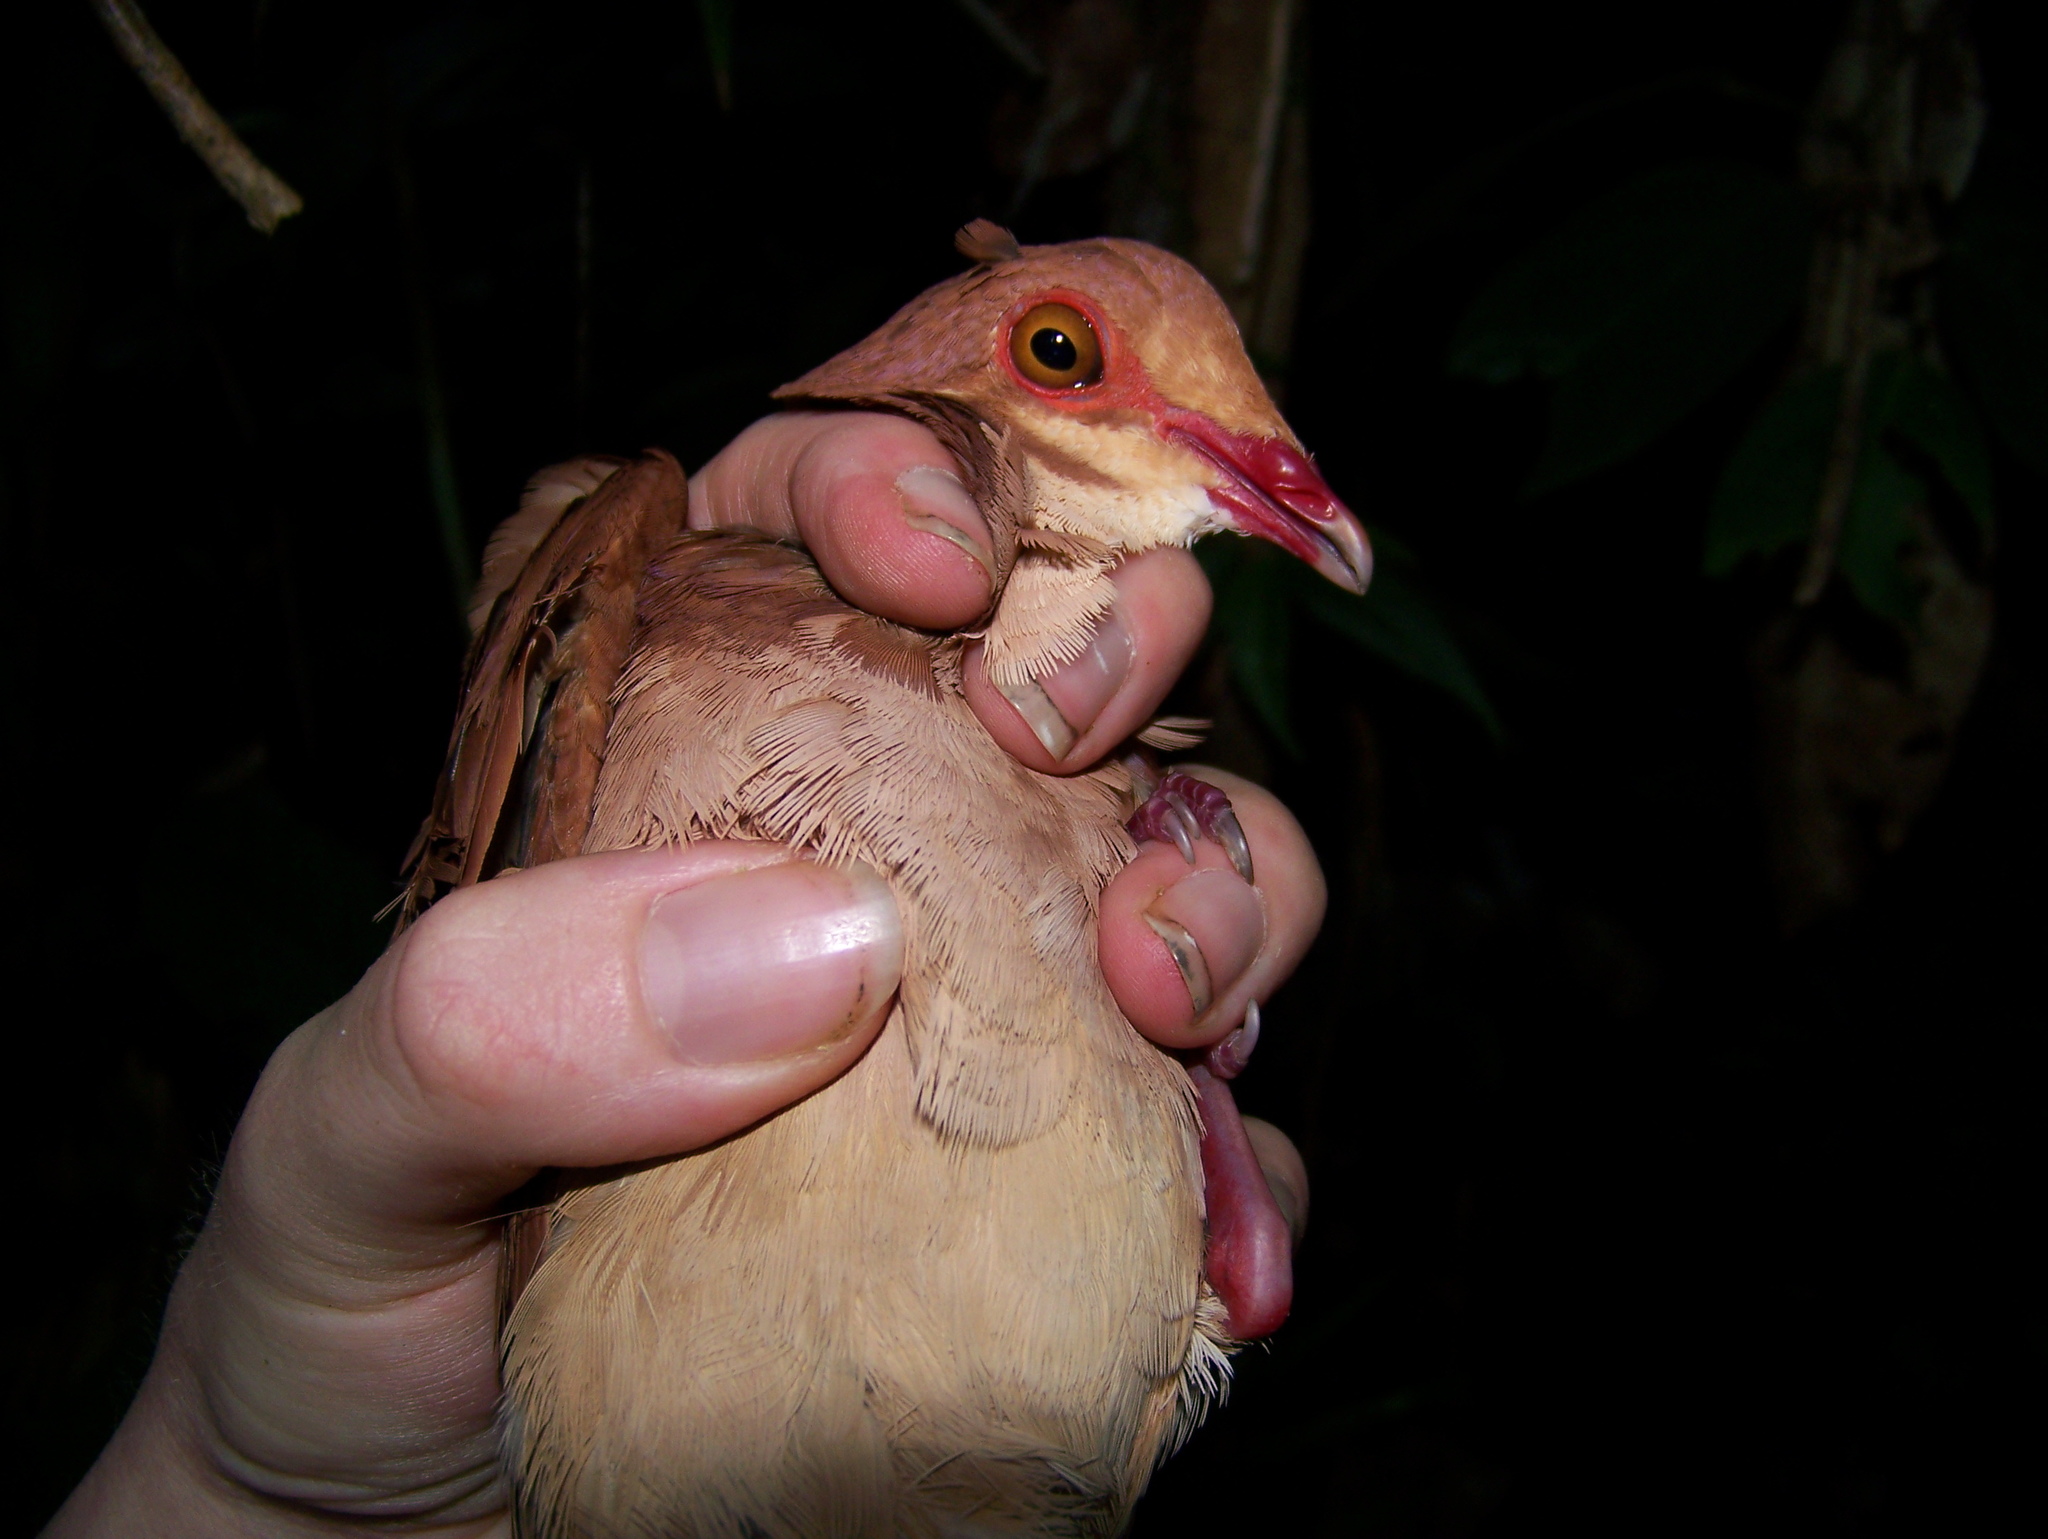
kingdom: Animalia
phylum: Chordata
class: Aves
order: Columbiformes
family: Columbidae
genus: Geotrygon
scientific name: Geotrygon montana
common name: Ruddy quail-dove
